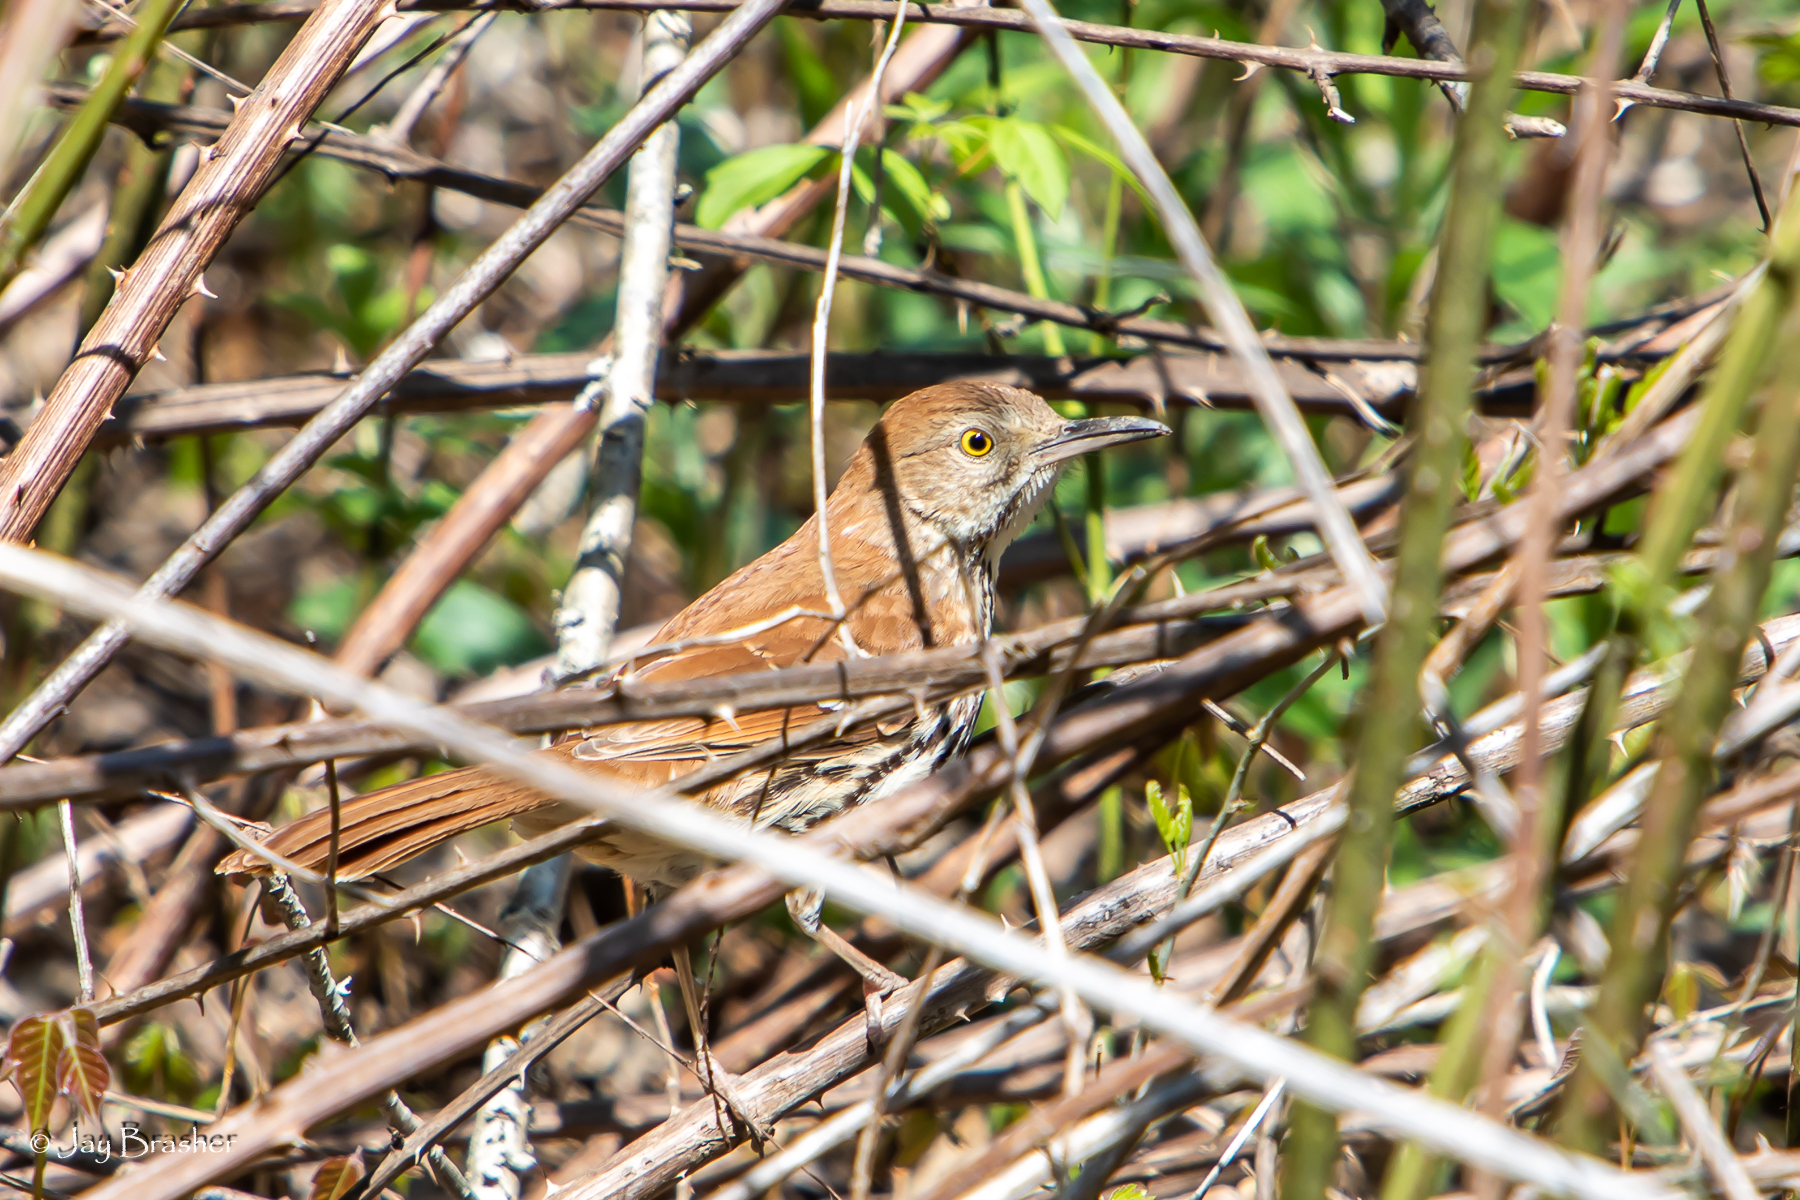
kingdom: Animalia
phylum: Chordata
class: Aves
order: Passeriformes
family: Mimidae
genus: Toxostoma
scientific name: Toxostoma rufum
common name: Brown thrasher
